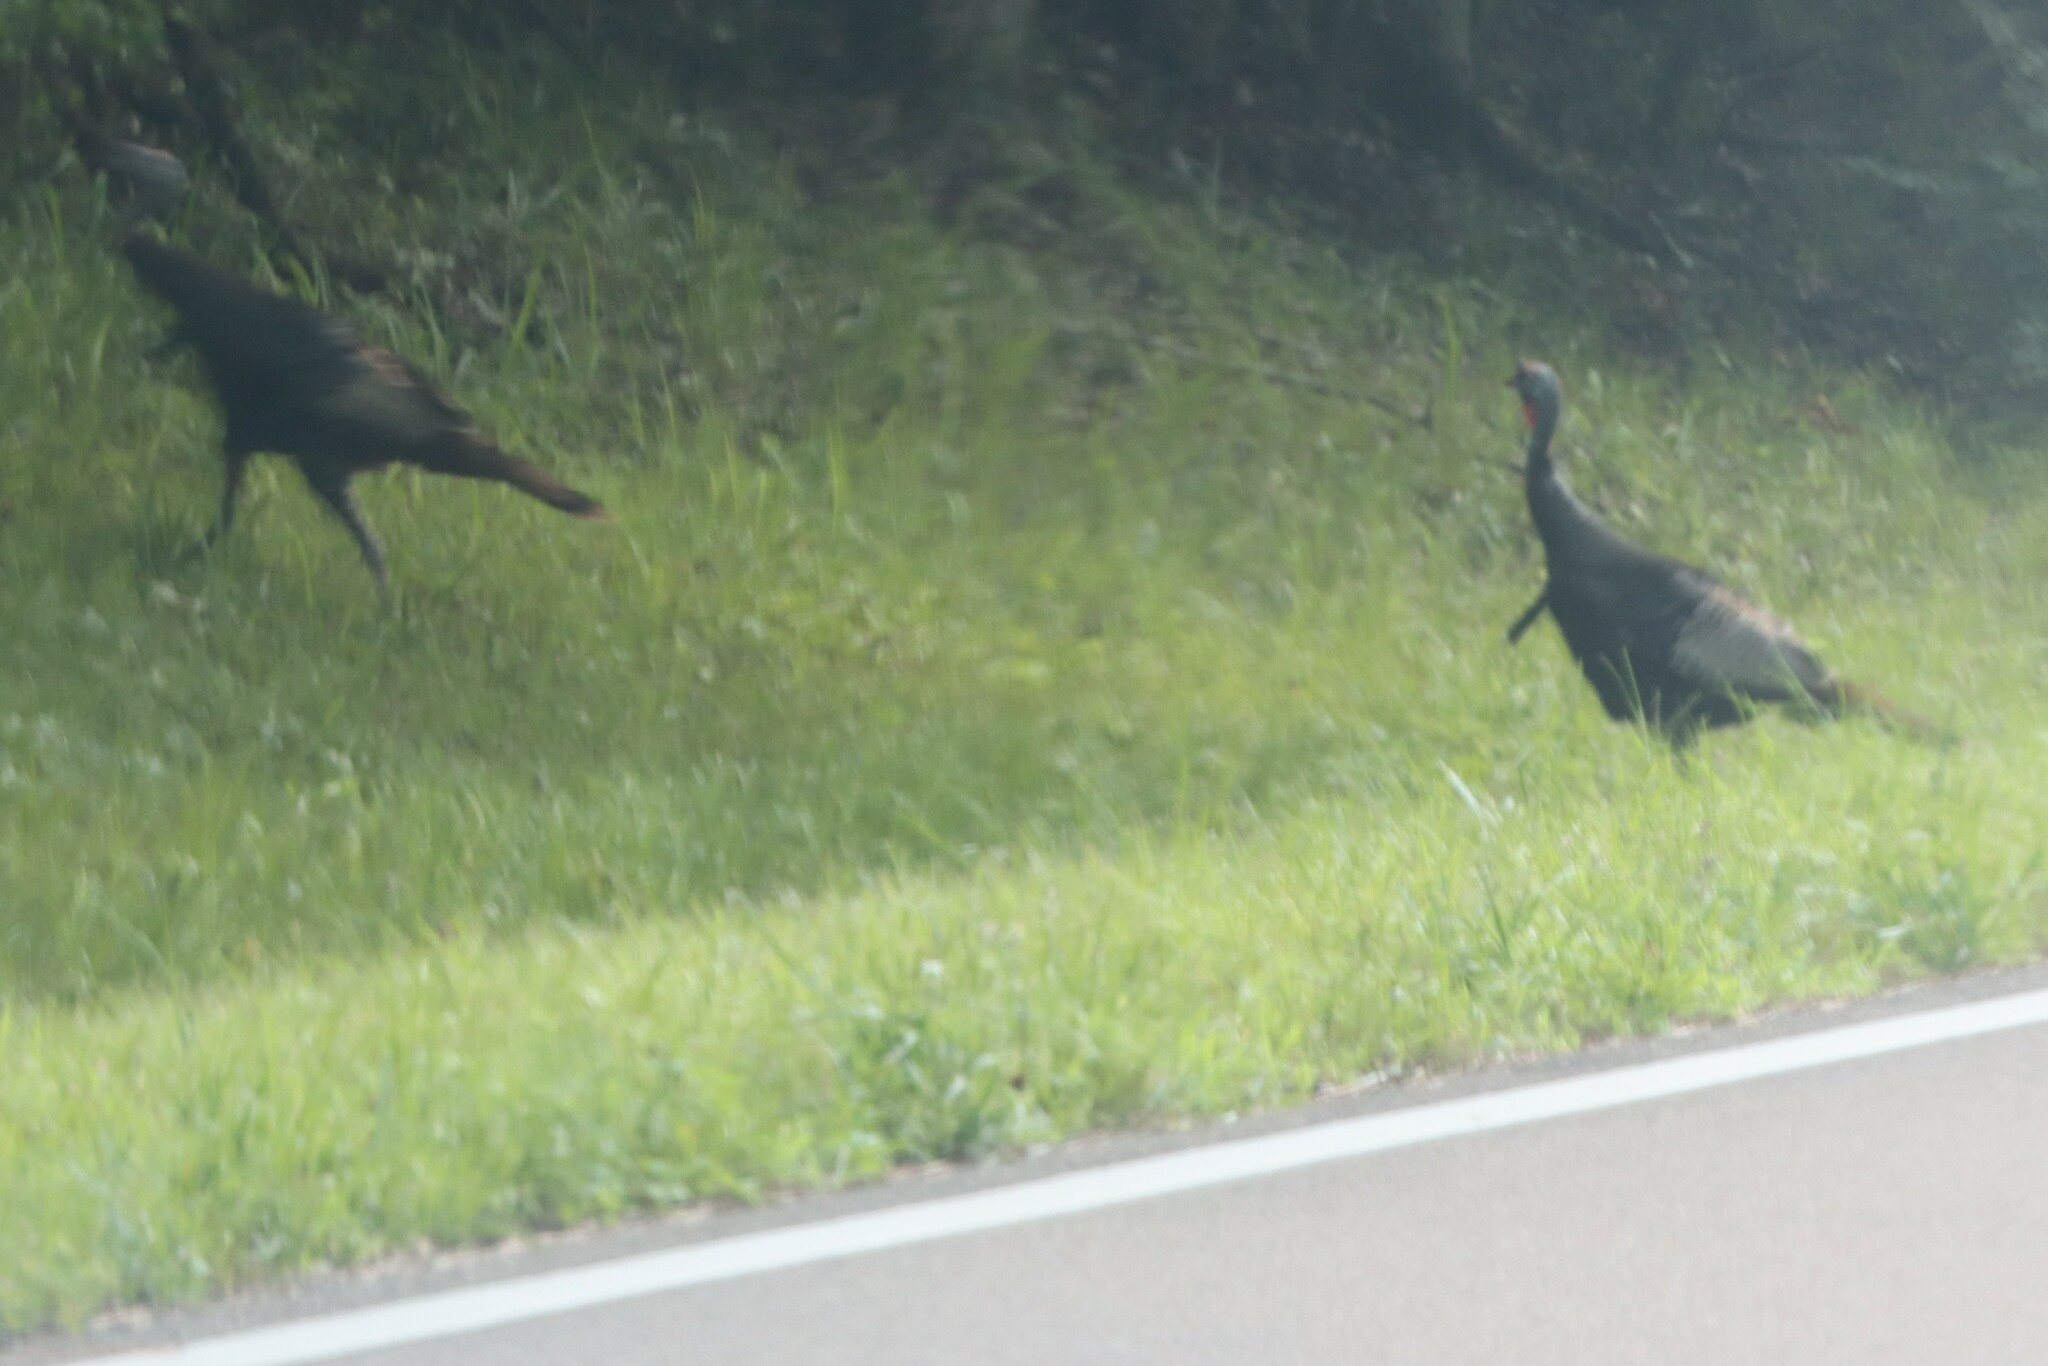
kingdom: Animalia
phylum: Chordata
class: Aves
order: Galliformes
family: Phasianidae
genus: Meleagris
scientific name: Meleagris gallopavo
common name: Wild turkey
